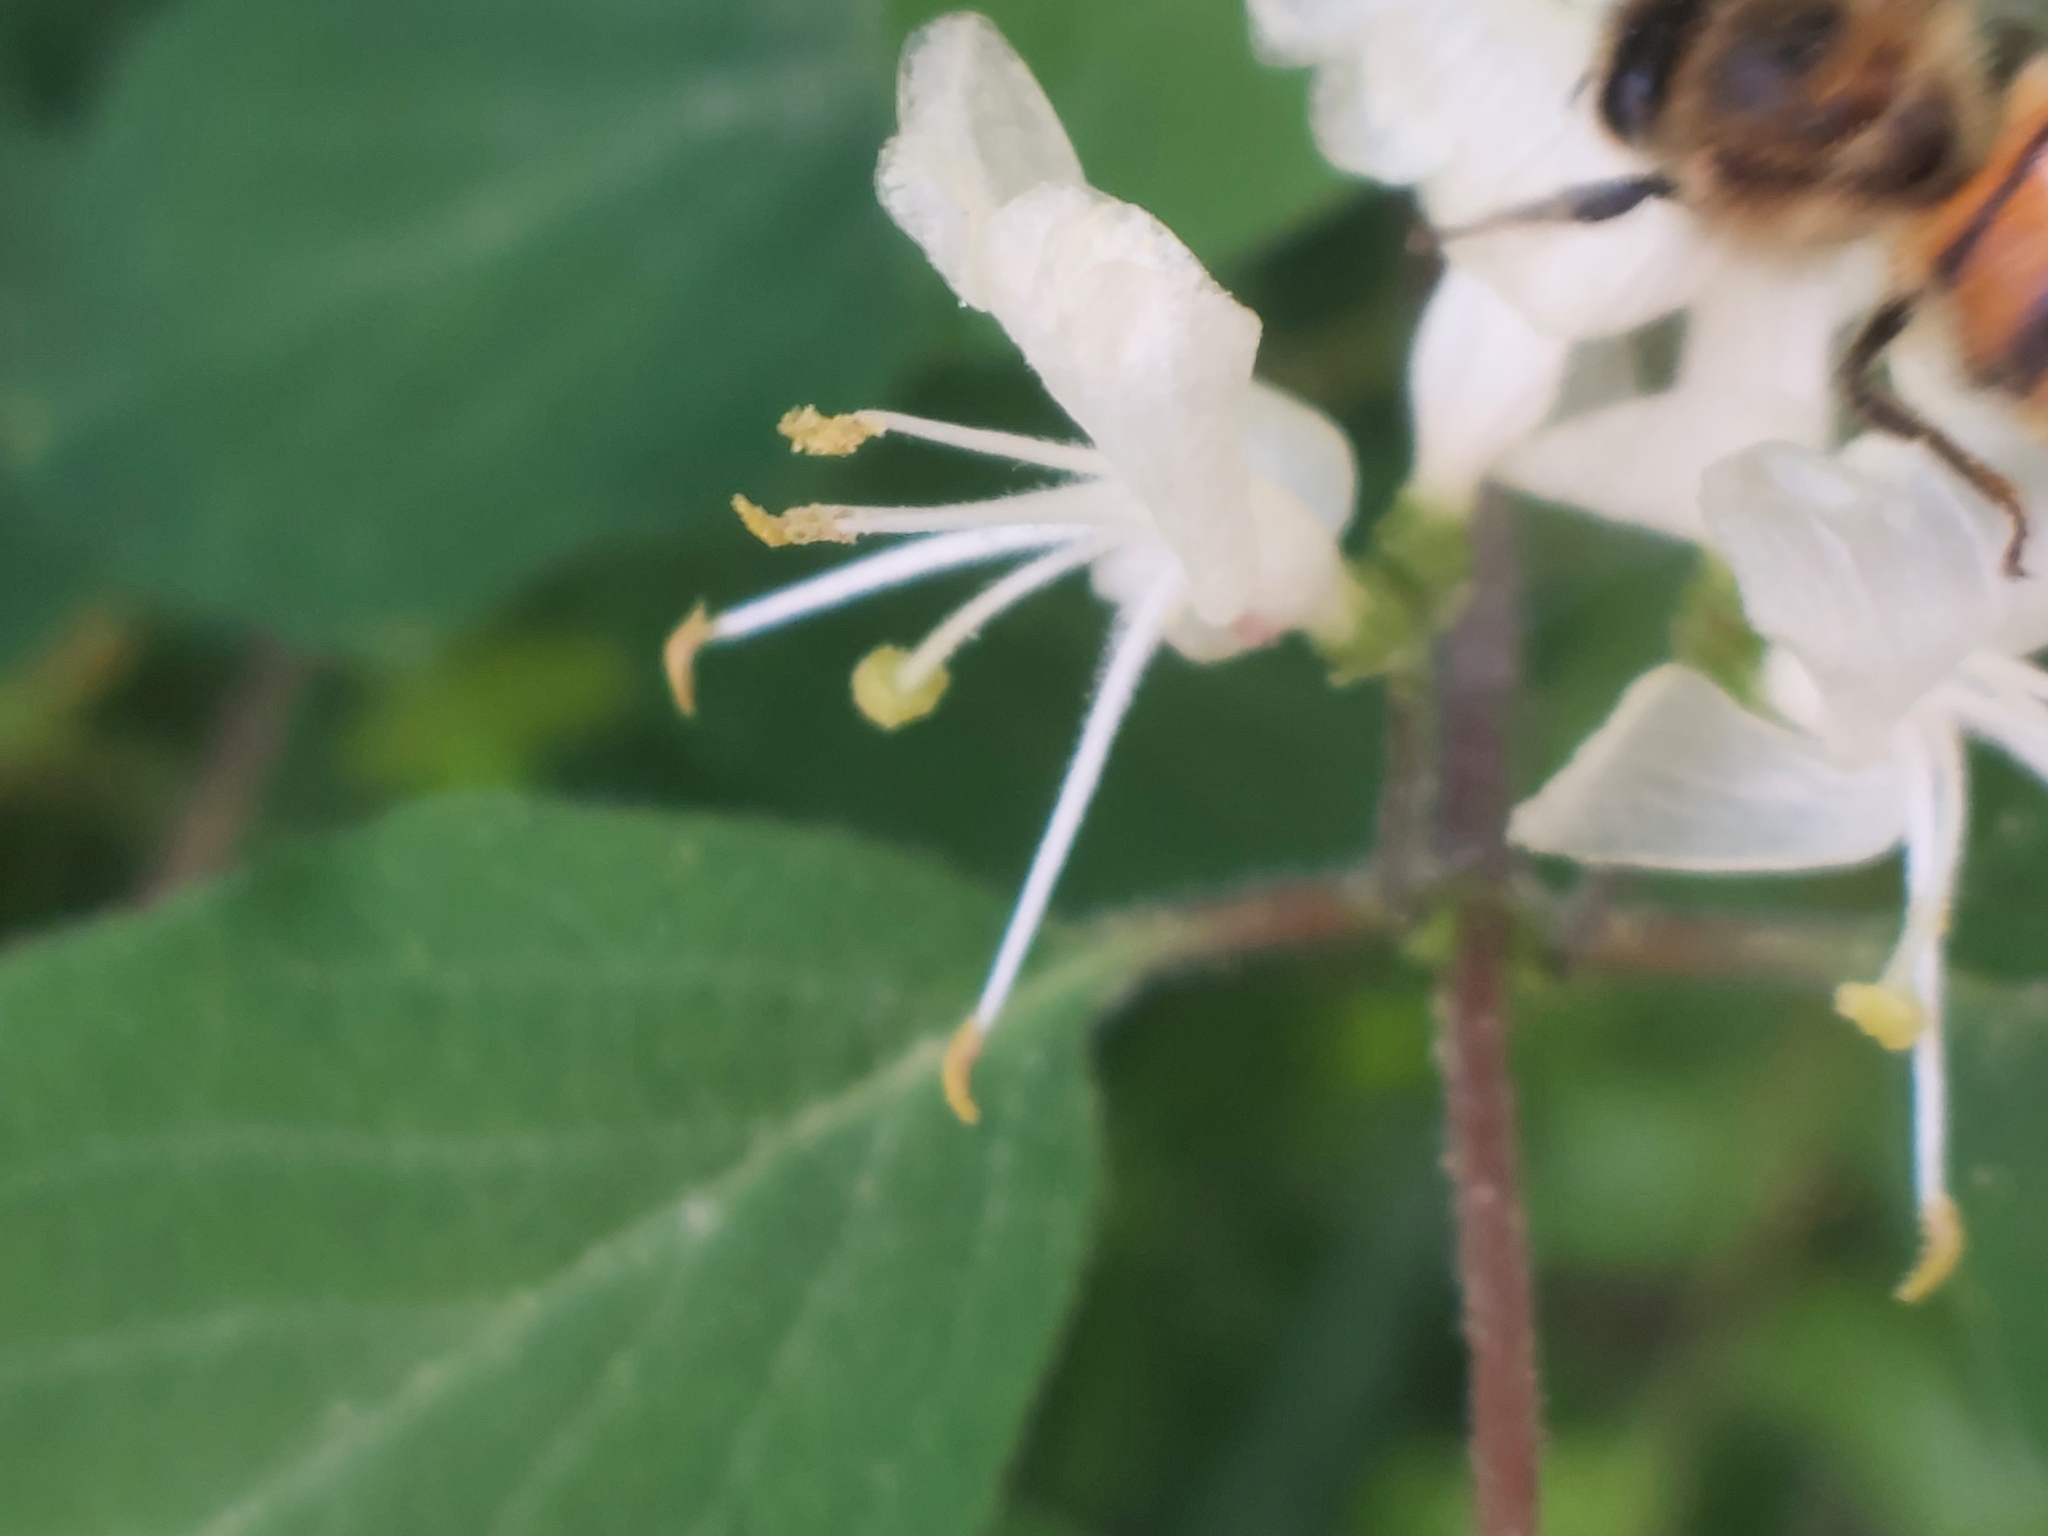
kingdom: Plantae
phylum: Tracheophyta
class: Magnoliopsida
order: Dipsacales
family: Caprifoliaceae
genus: Lonicera
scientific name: Lonicera xylosteum
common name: Fly honeysuckle
